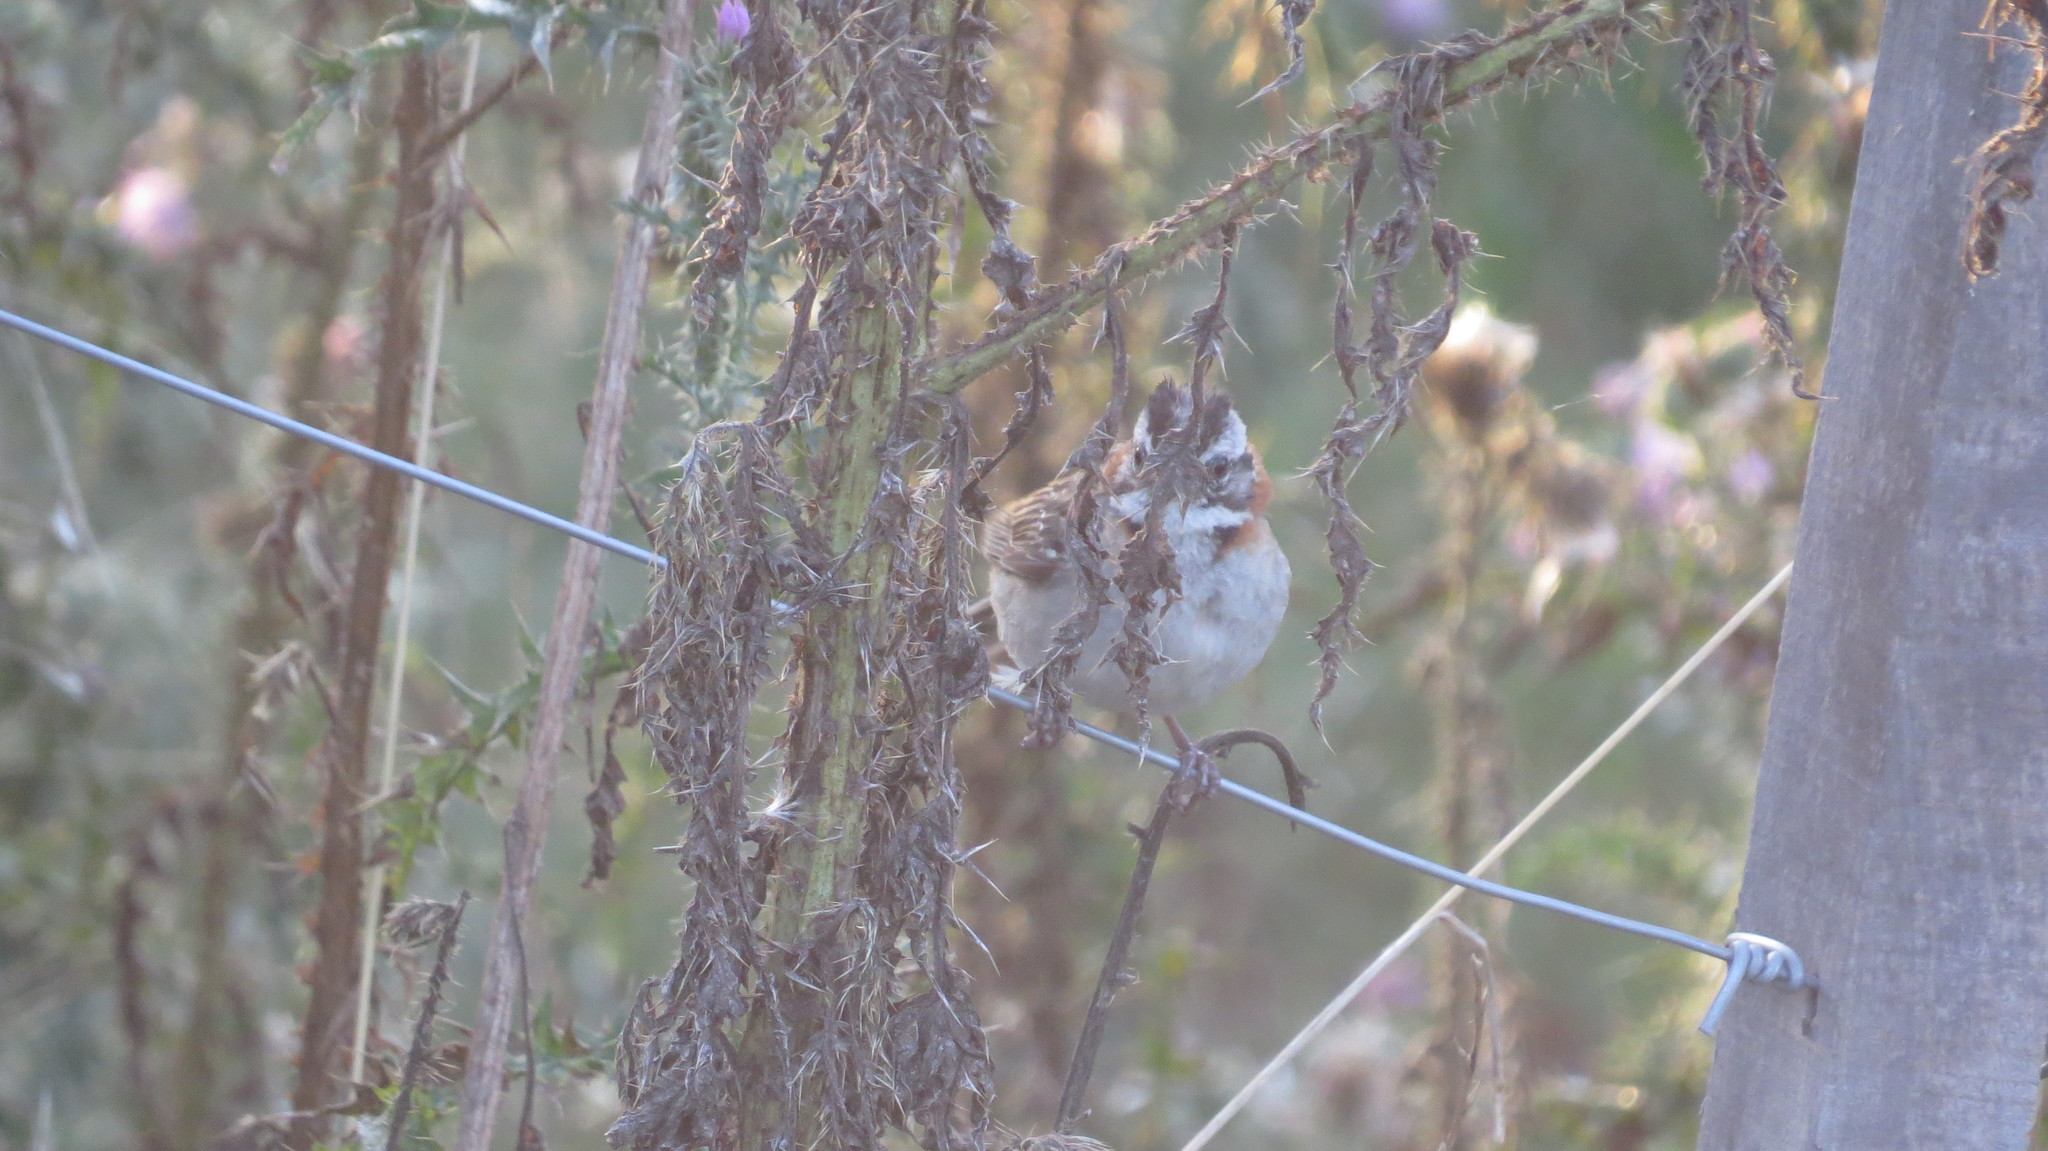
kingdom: Animalia
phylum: Chordata
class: Aves
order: Passeriformes
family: Passerellidae
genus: Zonotrichia
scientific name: Zonotrichia capensis
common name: Rufous-collared sparrow
